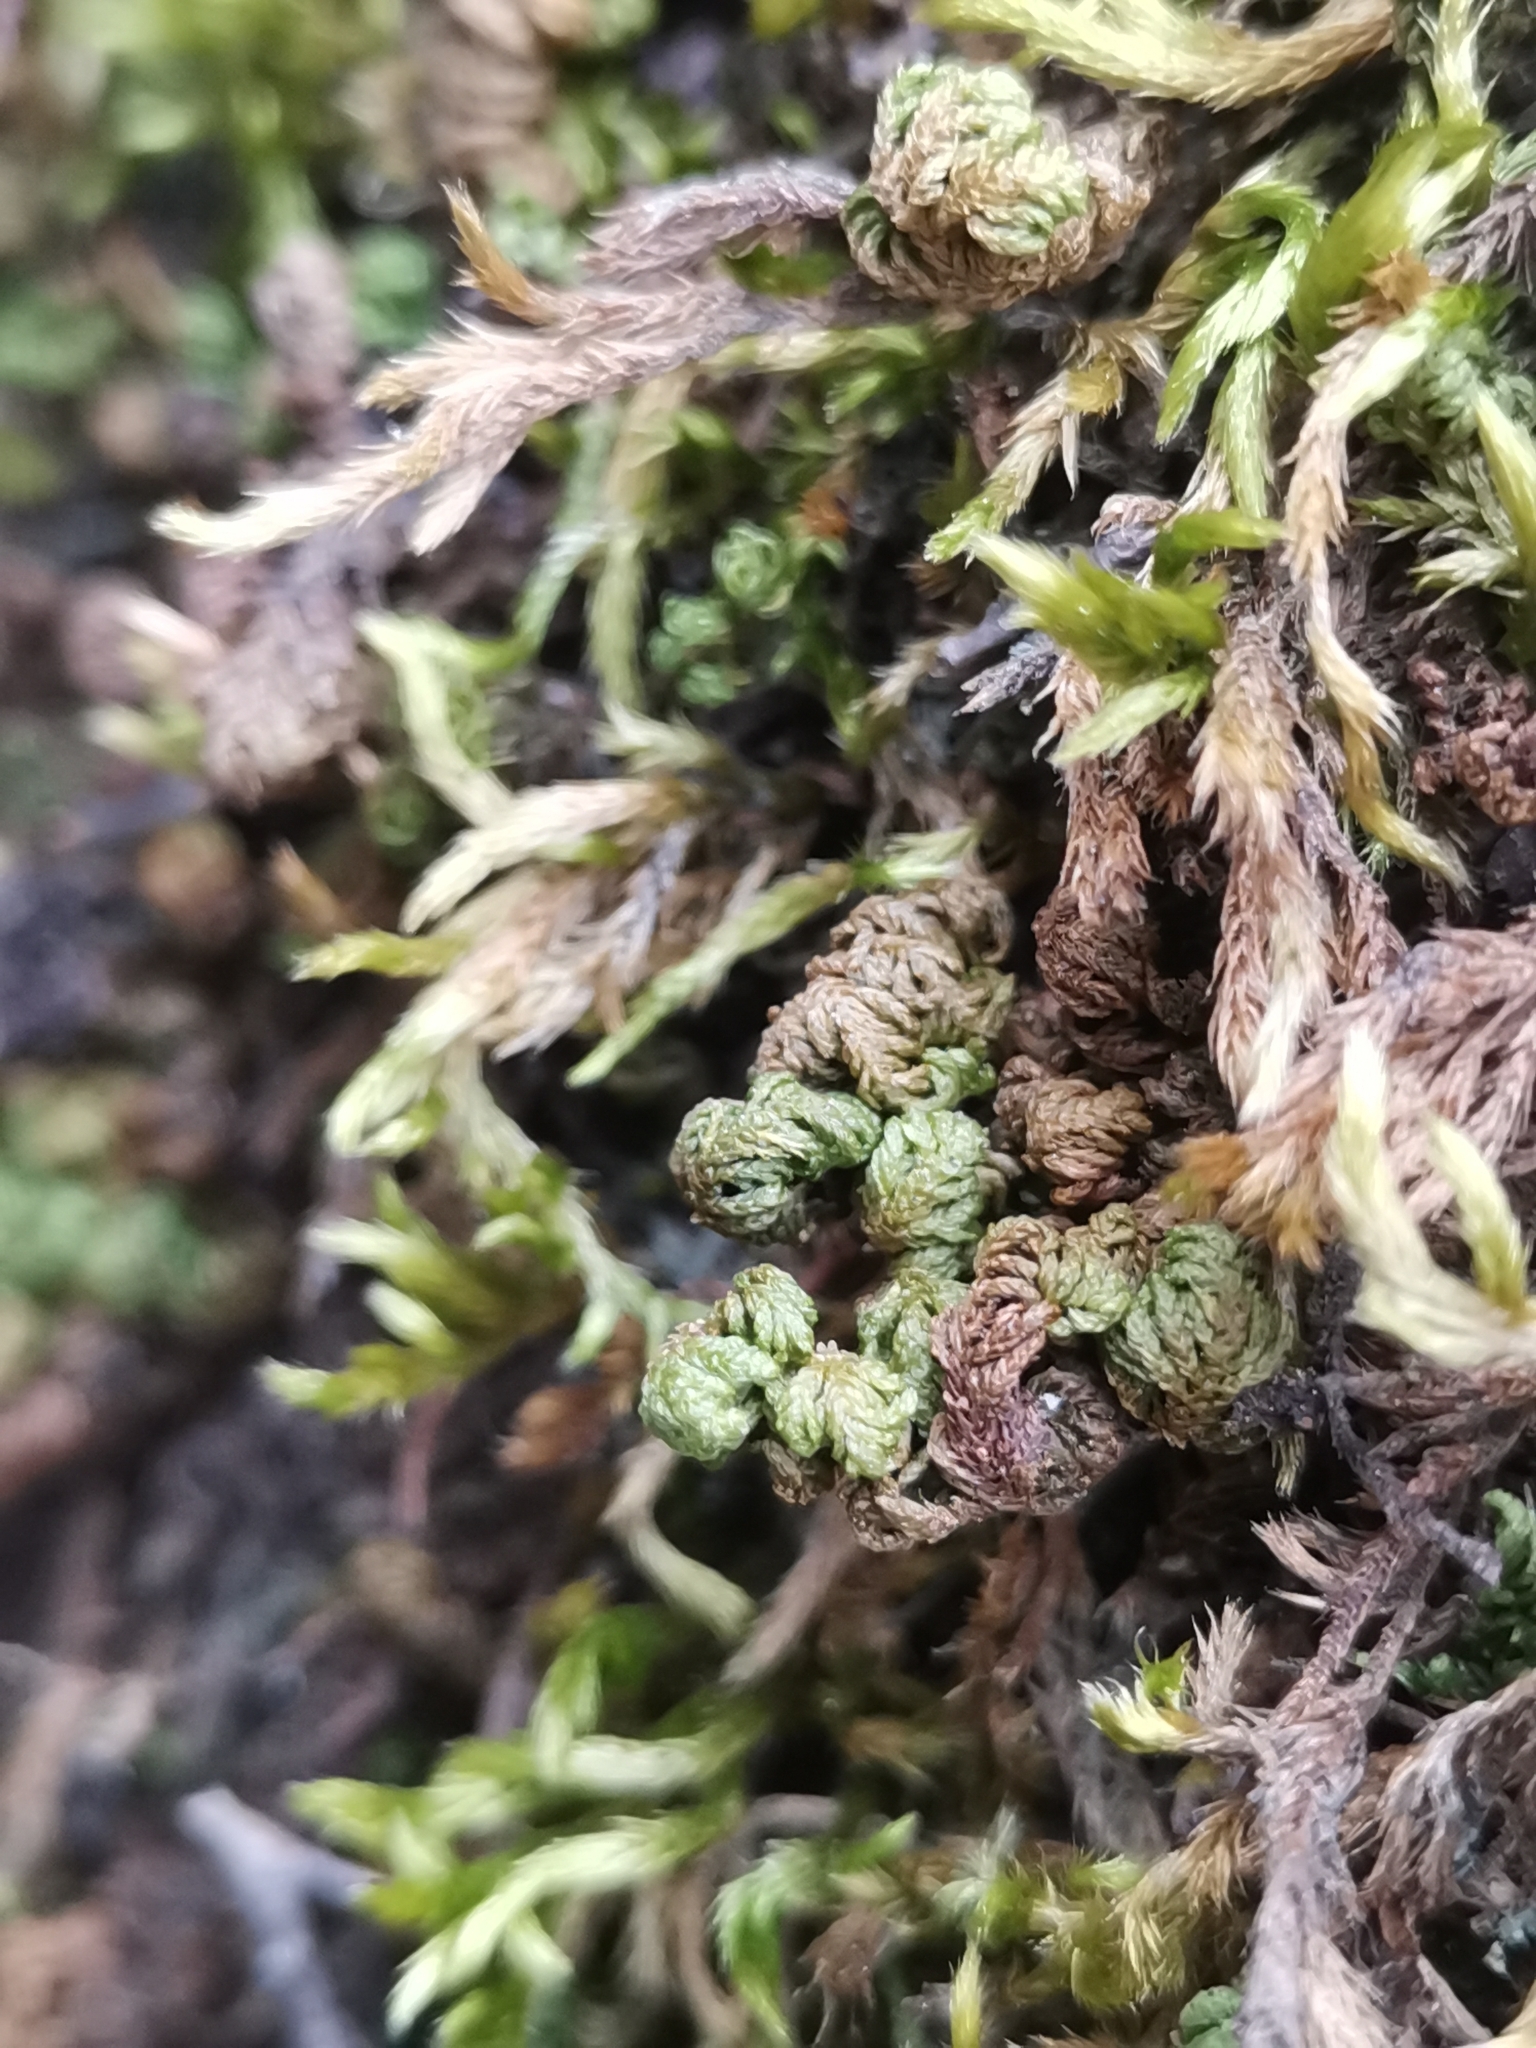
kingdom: Plantae
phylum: Bryophyta
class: Bryopsida
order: Hypnales
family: Neckeraceae
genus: Leptodon
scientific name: Leptodon smithii
